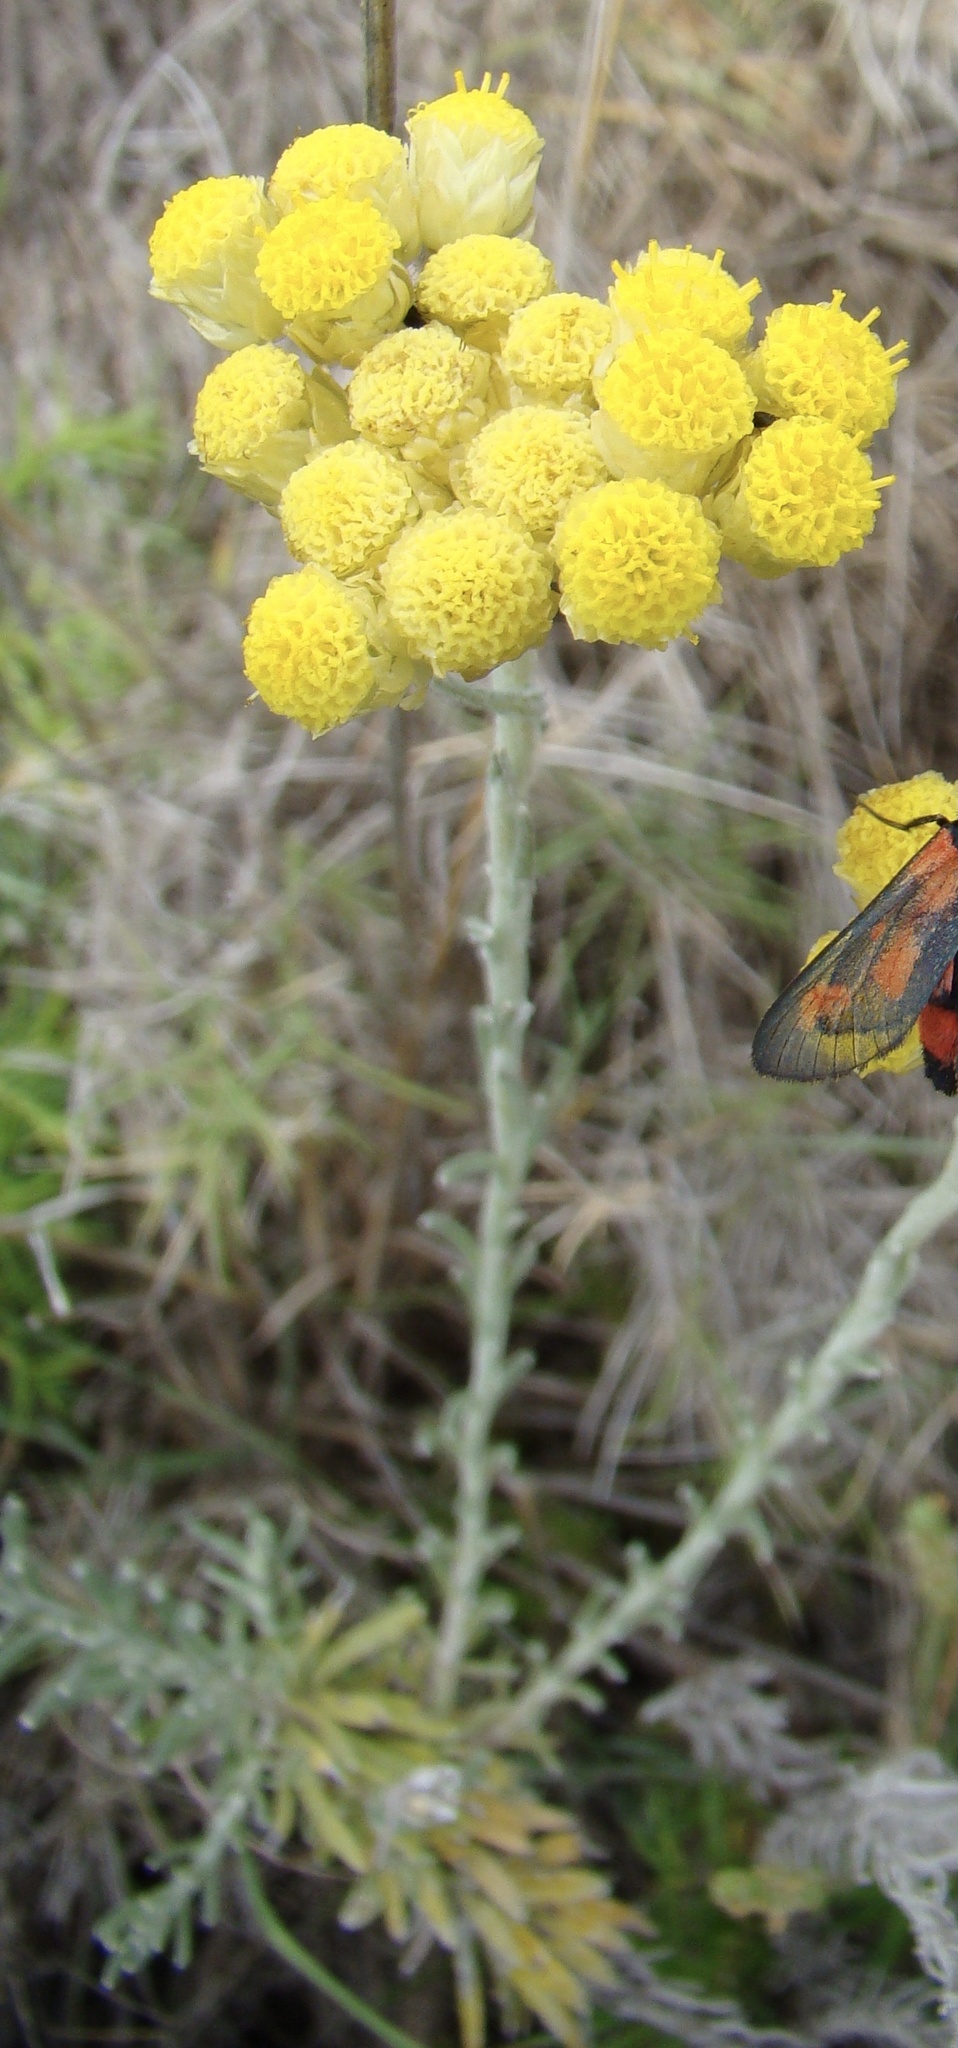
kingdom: Plantae
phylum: Tracheophyta
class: Magnoliopsida
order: Asterales
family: Asteraceae
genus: Helichrysum
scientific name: Helichrysum stoechas
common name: Goldilocks
